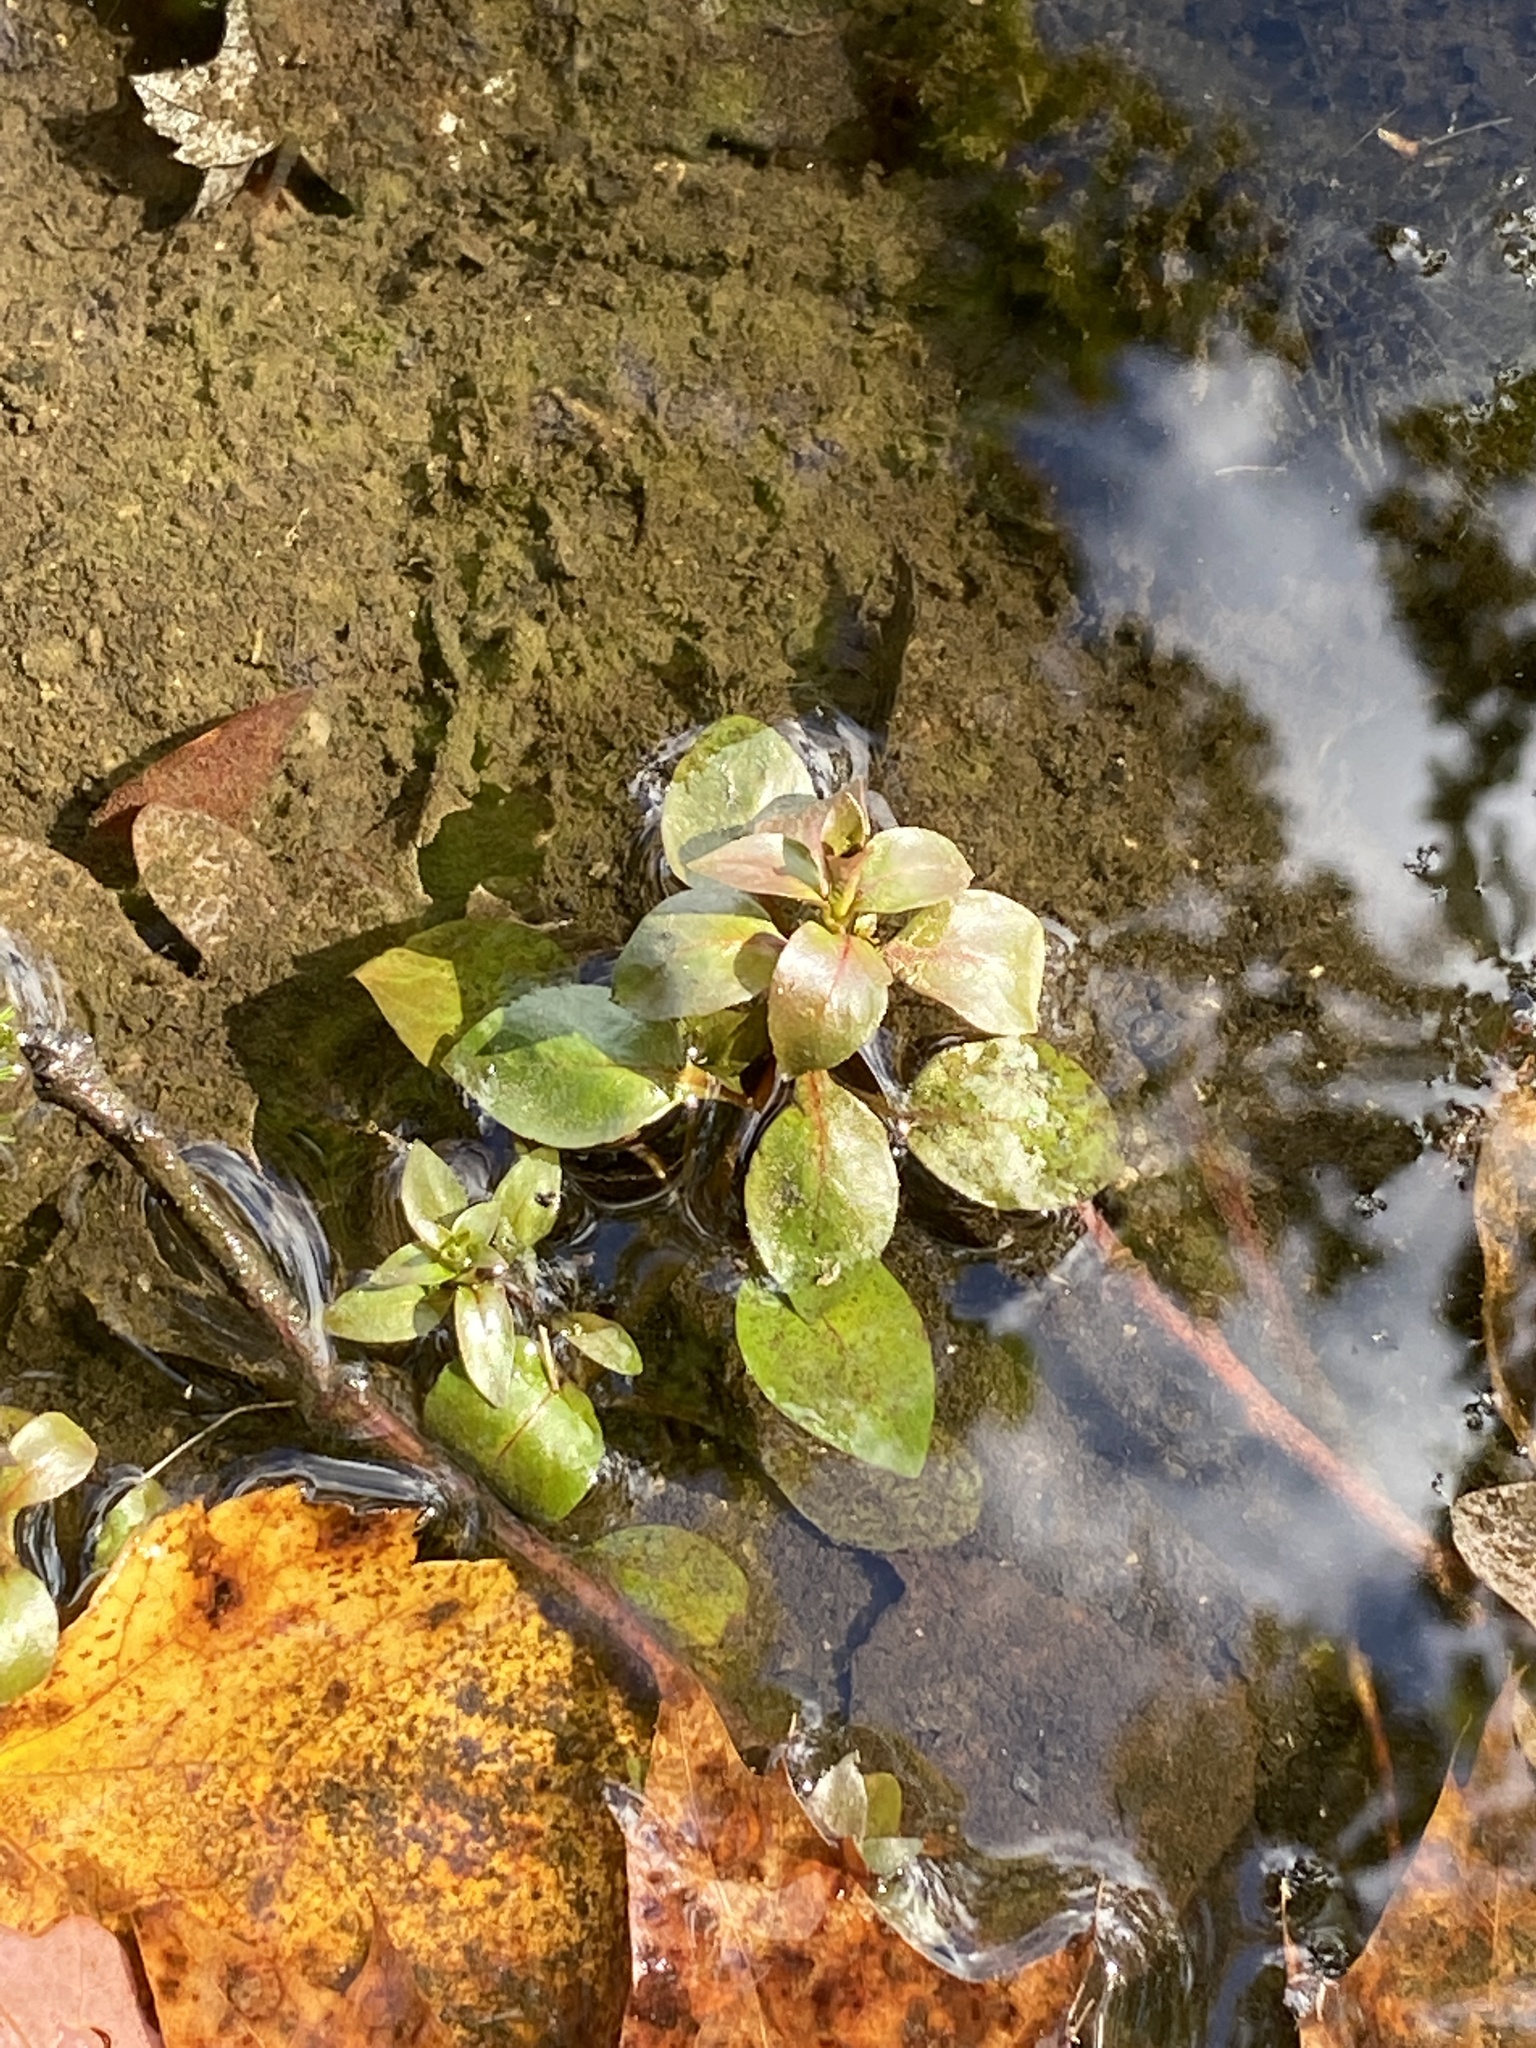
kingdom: Plantae
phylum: Tracheophyta
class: Magnoliopsida
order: Myrtales
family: Onagraceae
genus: Ludwigia
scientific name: Ludwigia palustris
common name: Hampshire-purslane
